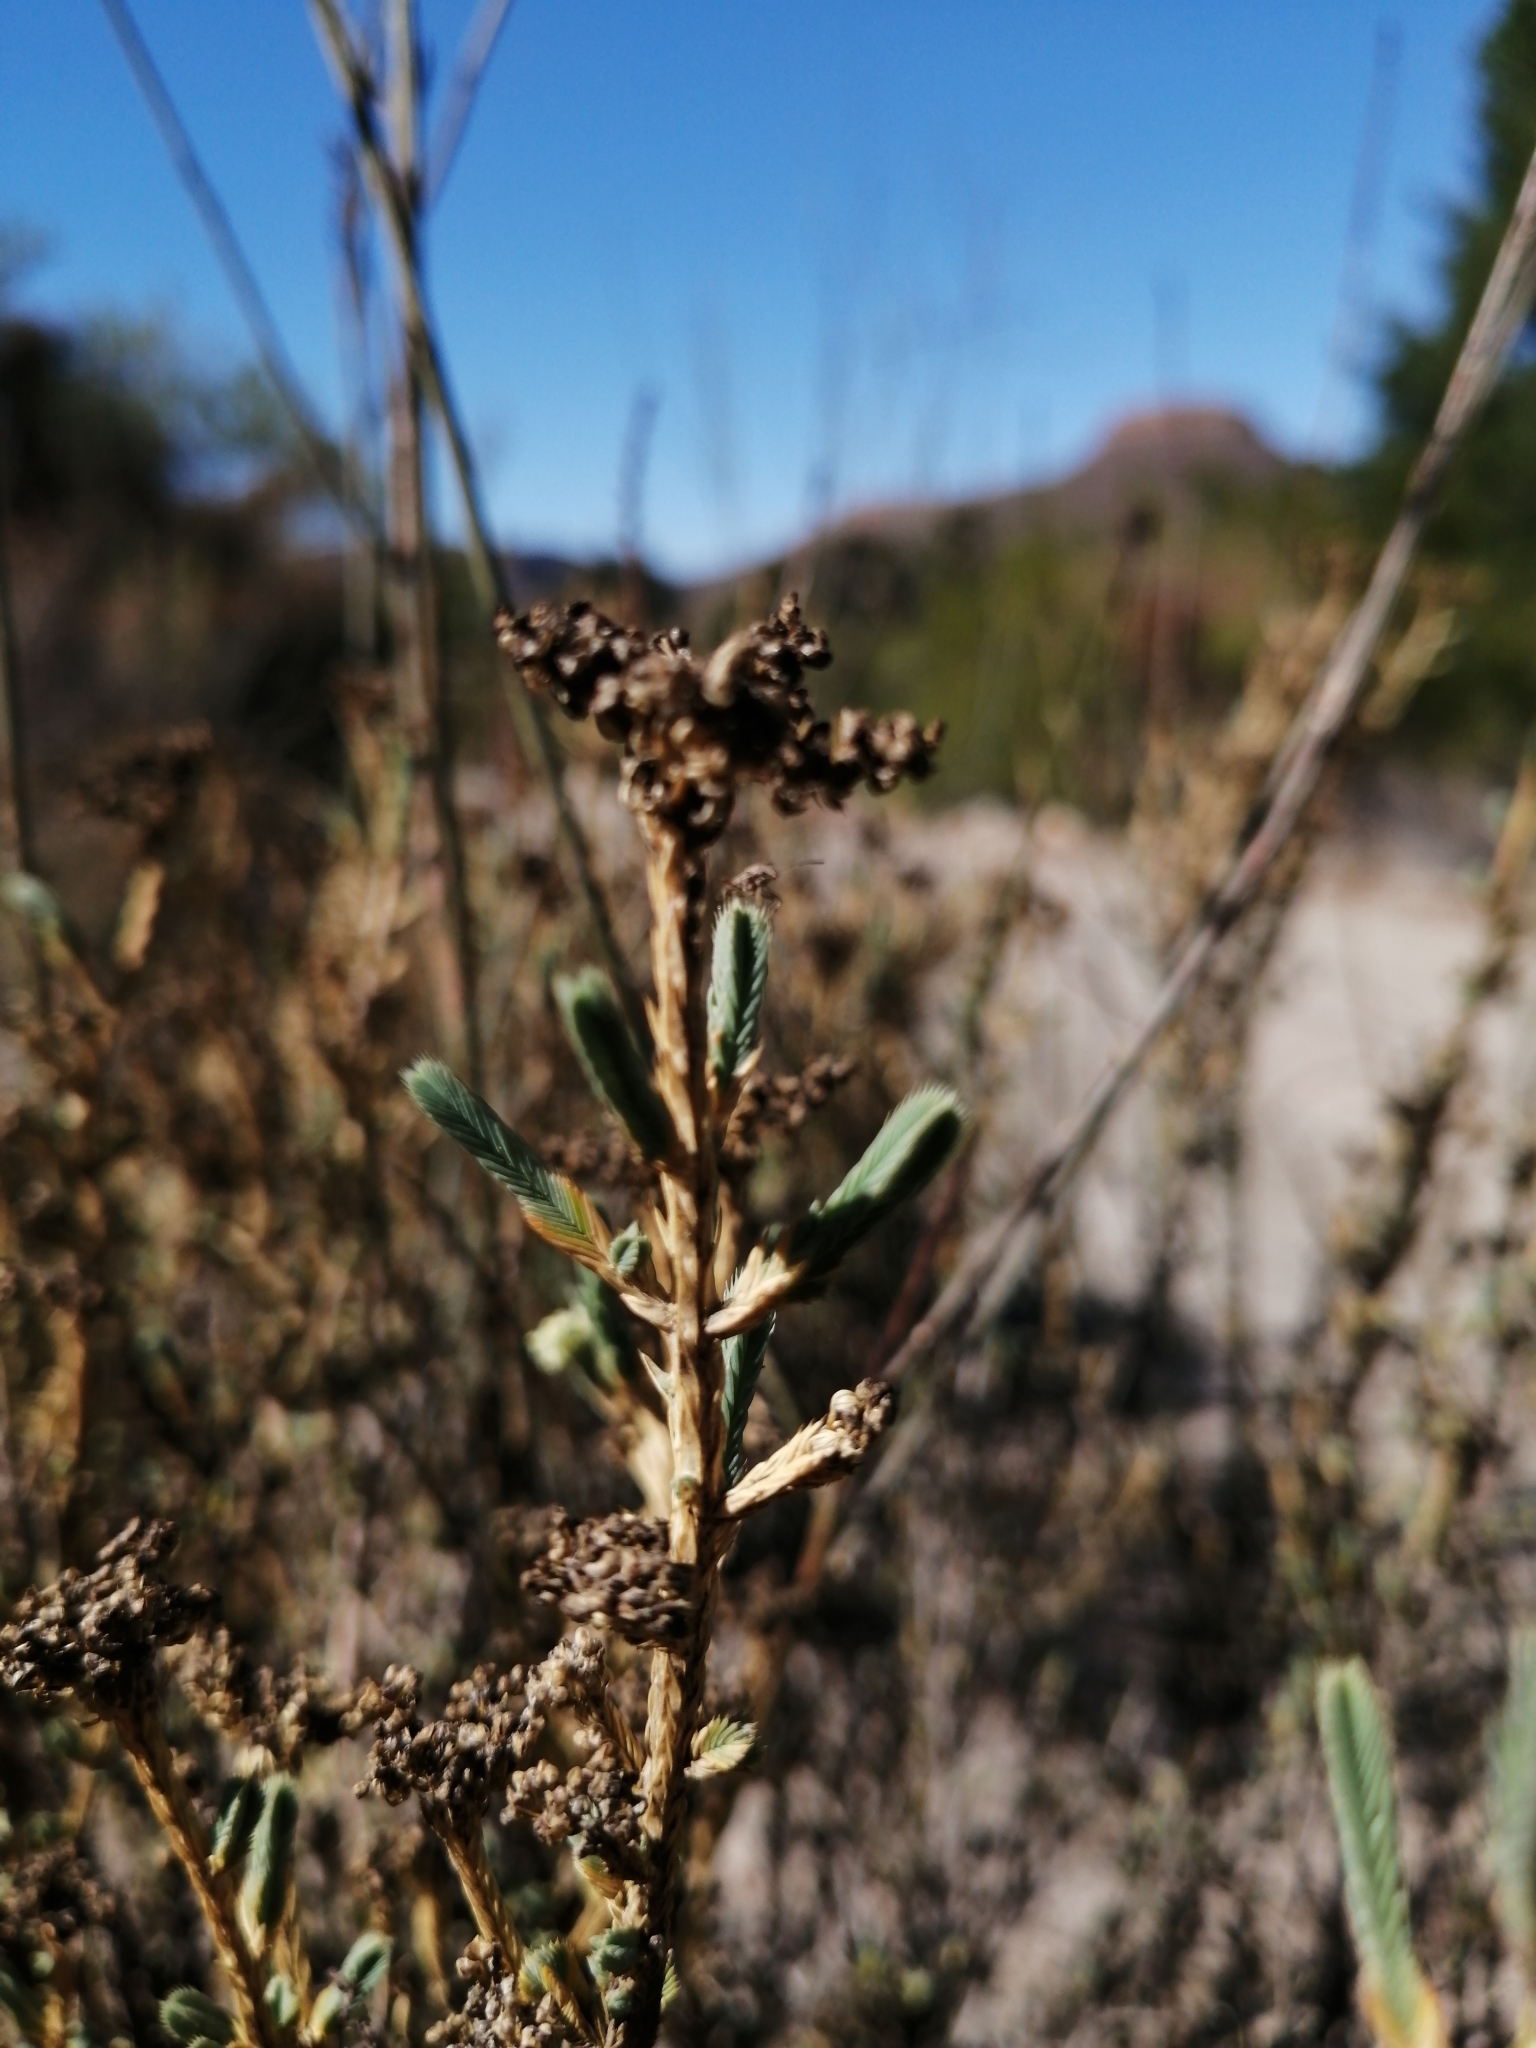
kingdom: Plantae
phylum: Tracheophyta
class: Magnoliopsida
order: Caryophyllales
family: Molluginaceae
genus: Psammotropha
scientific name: Psammotropha anguina
